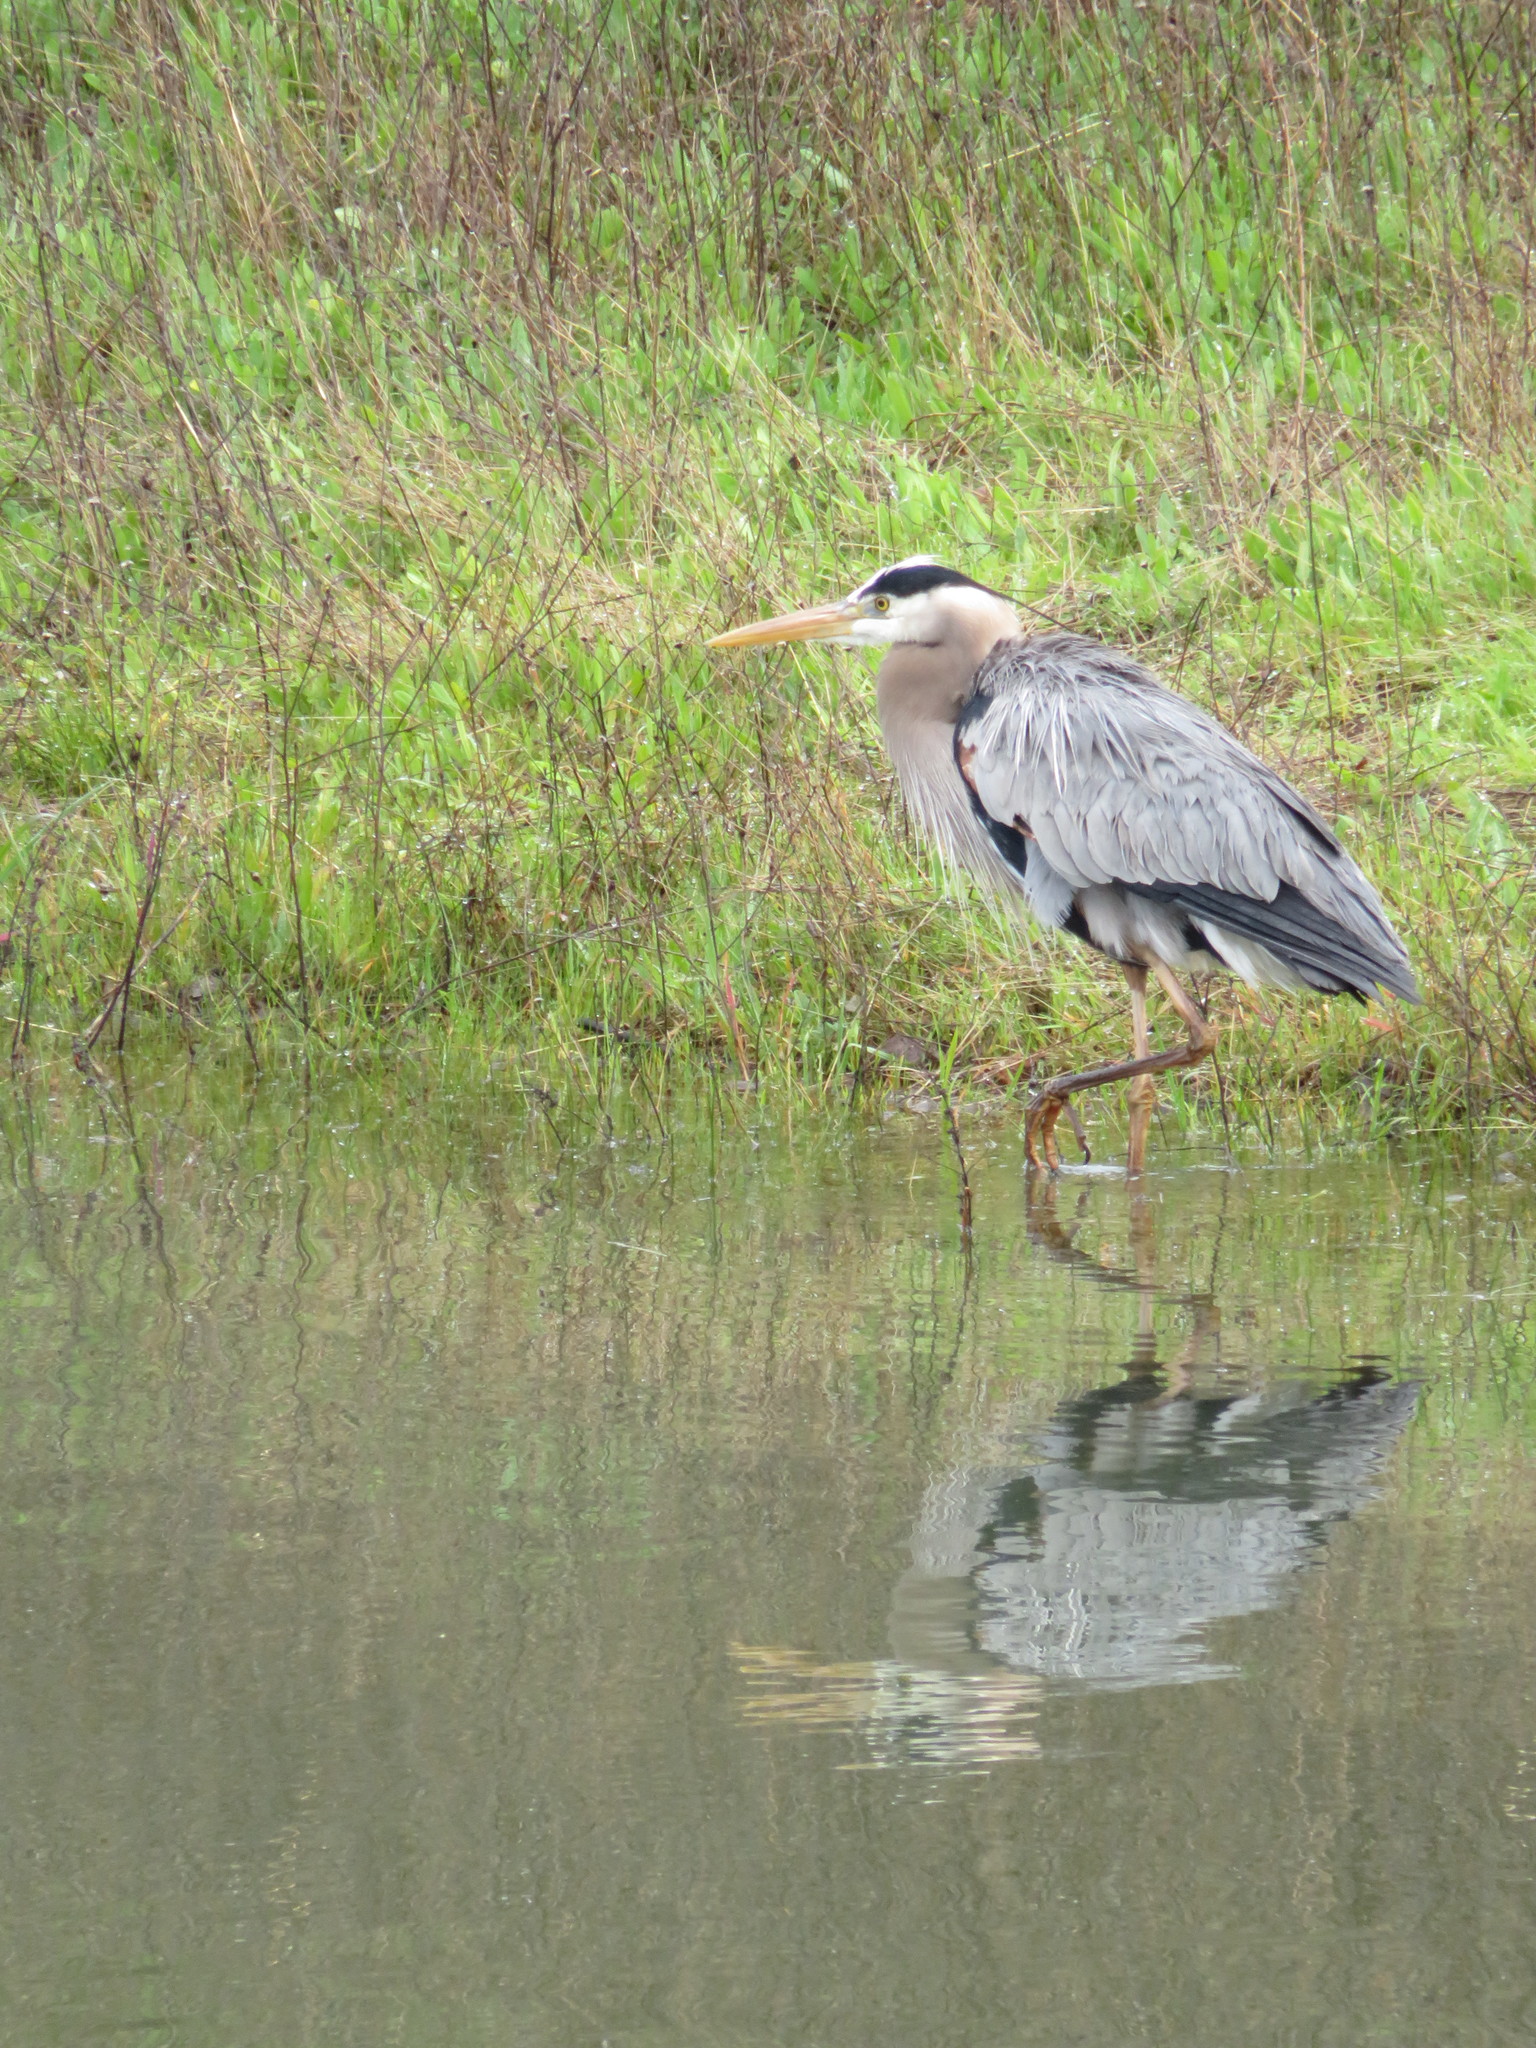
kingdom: Animalia
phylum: Chordata
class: Aves
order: Pelecaniformes
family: Ardeidae
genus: Ardea
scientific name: Ardea herodias
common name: Great blue heron
